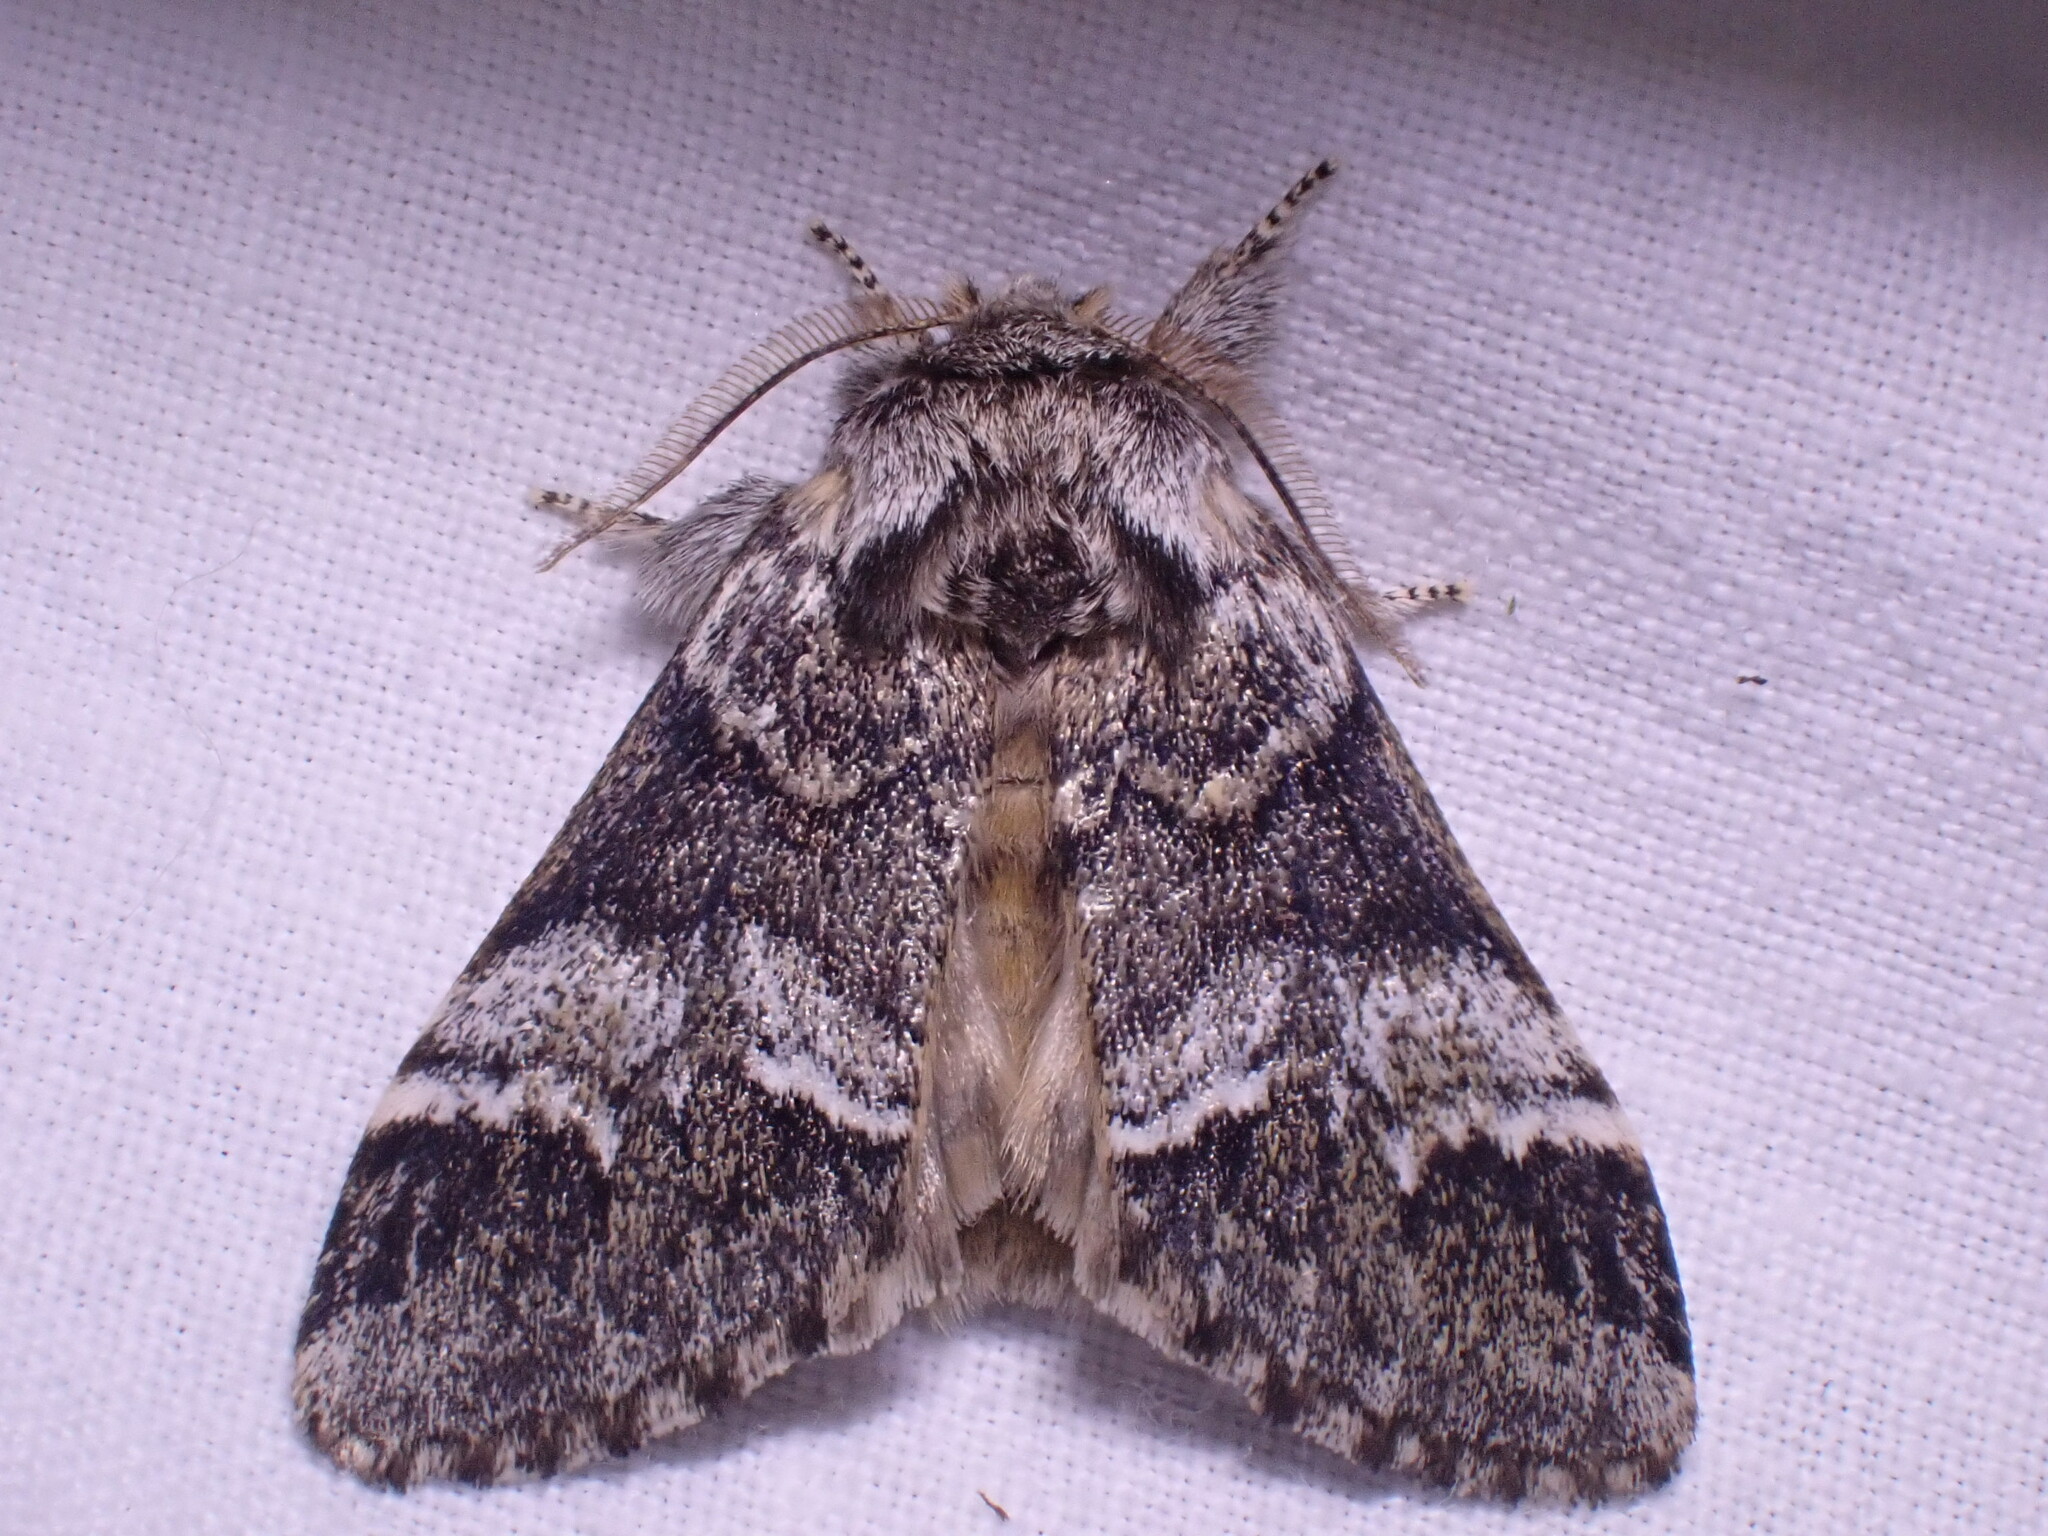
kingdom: Animalia
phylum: Arthropoda
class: Insecta
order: Lepidoptera
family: Notodontidae
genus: Drymonia
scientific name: Drymonia dodonaea
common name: Marbled brown
